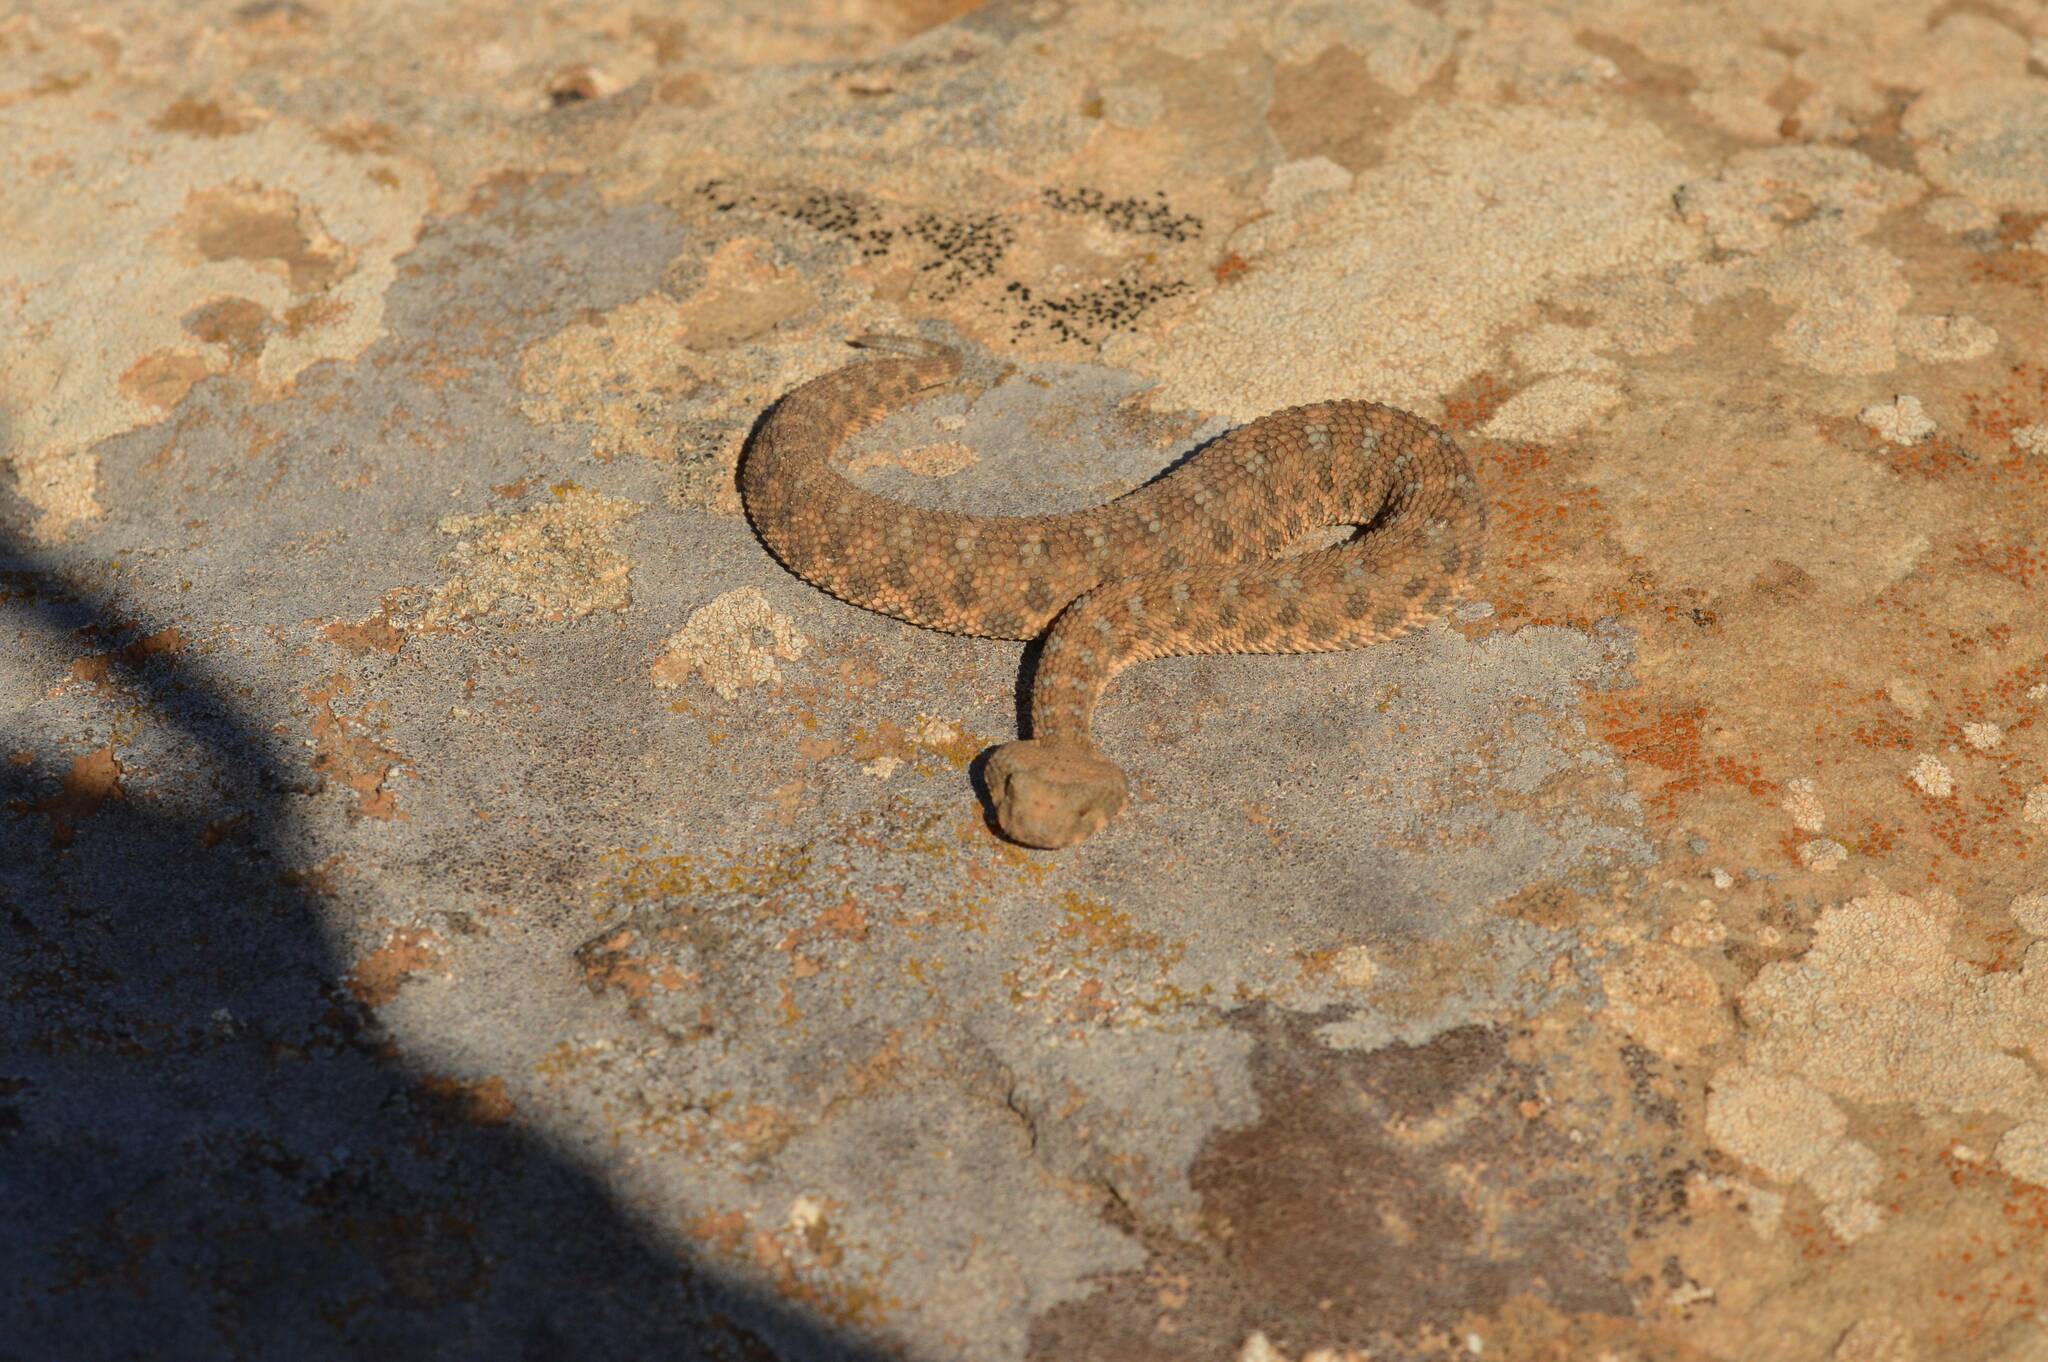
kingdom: Animalia
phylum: Chordata
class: Squamata
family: Viperidae
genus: Cerastes
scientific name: Cerastes cerastes
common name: Desert horned viper
